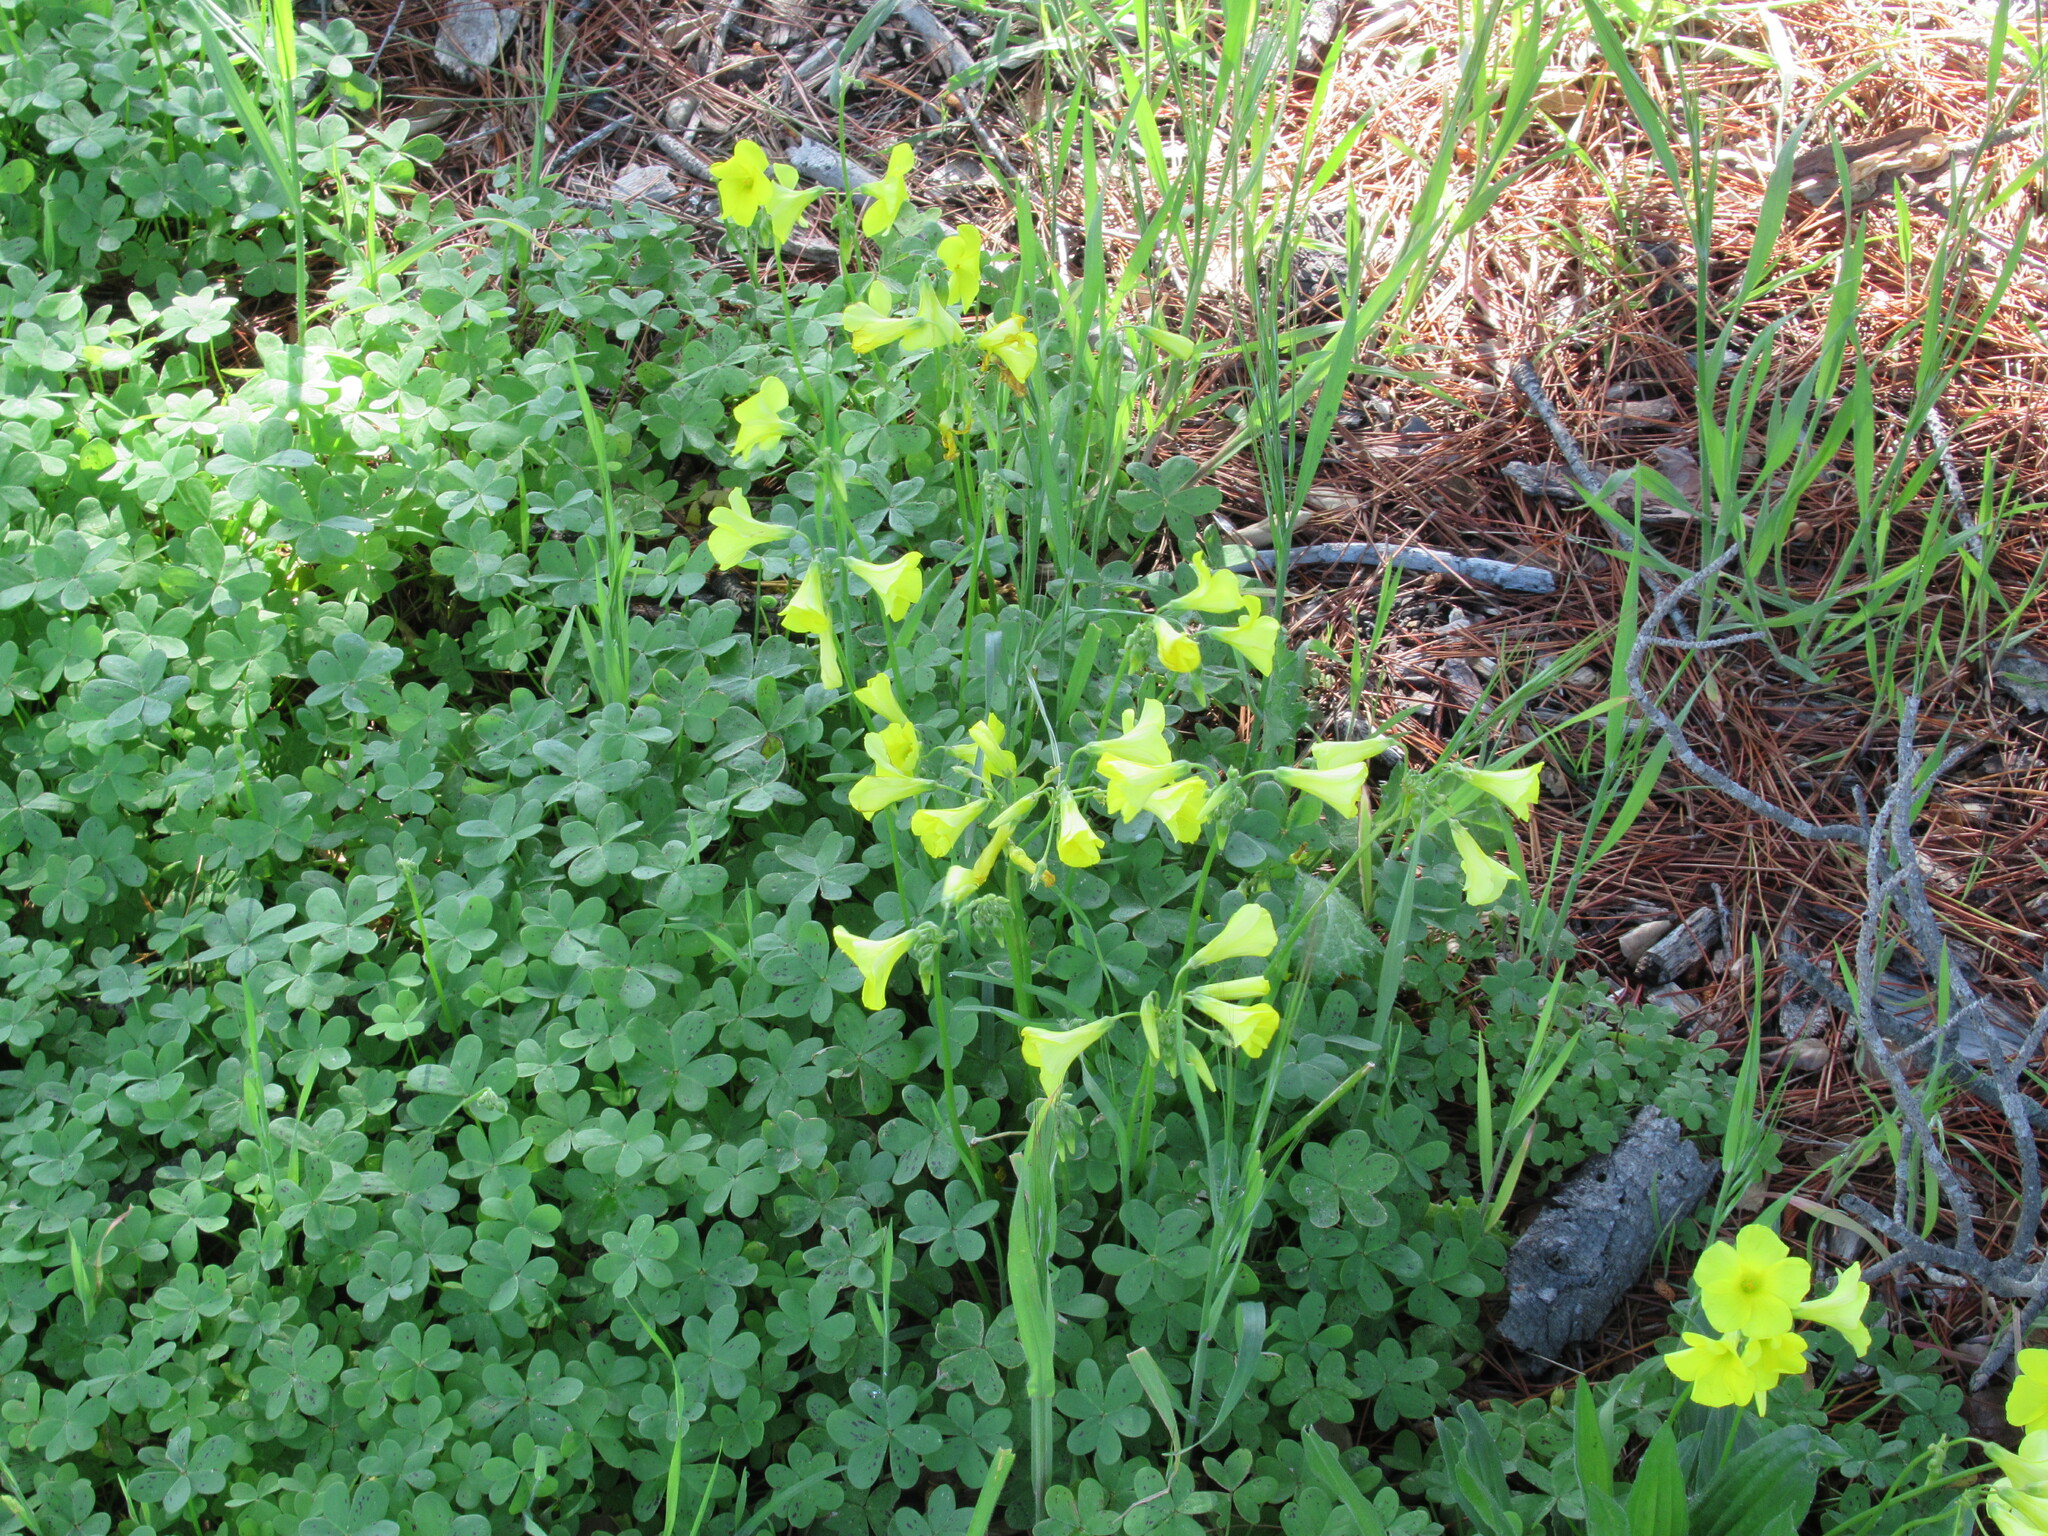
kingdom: Plantae
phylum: Tracheophyta
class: Magnoliopsida
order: Oxalidales
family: Oxalidaceae
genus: Oxalis
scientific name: Oxalis pes-caprae
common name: Bermuda-buttercup
